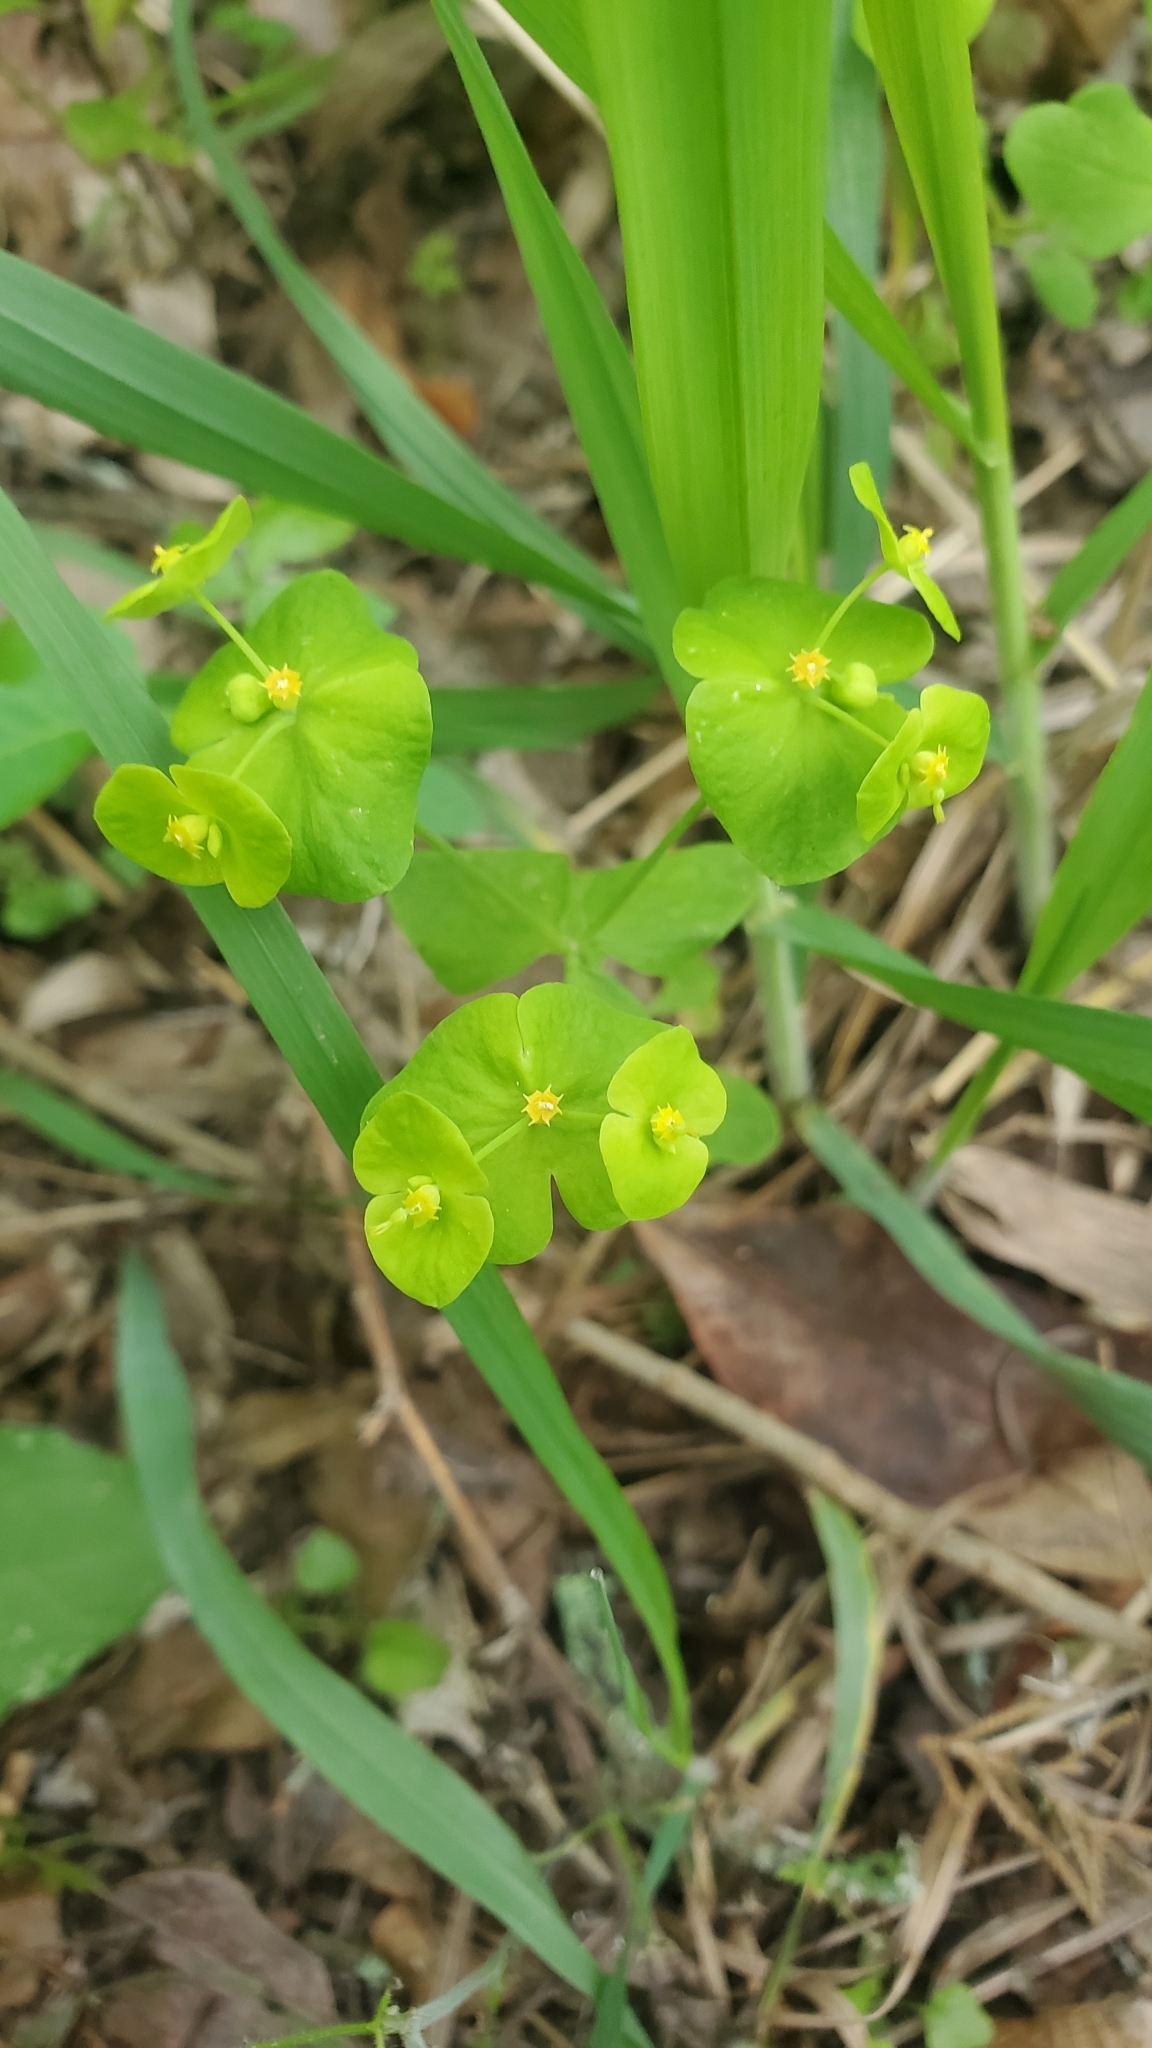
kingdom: Plantae
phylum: Tracheophyta
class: Magnoliopsida
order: Malpighiales
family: Euphorbiaceae
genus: Euphorbia
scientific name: Euphorbia roemeriana
